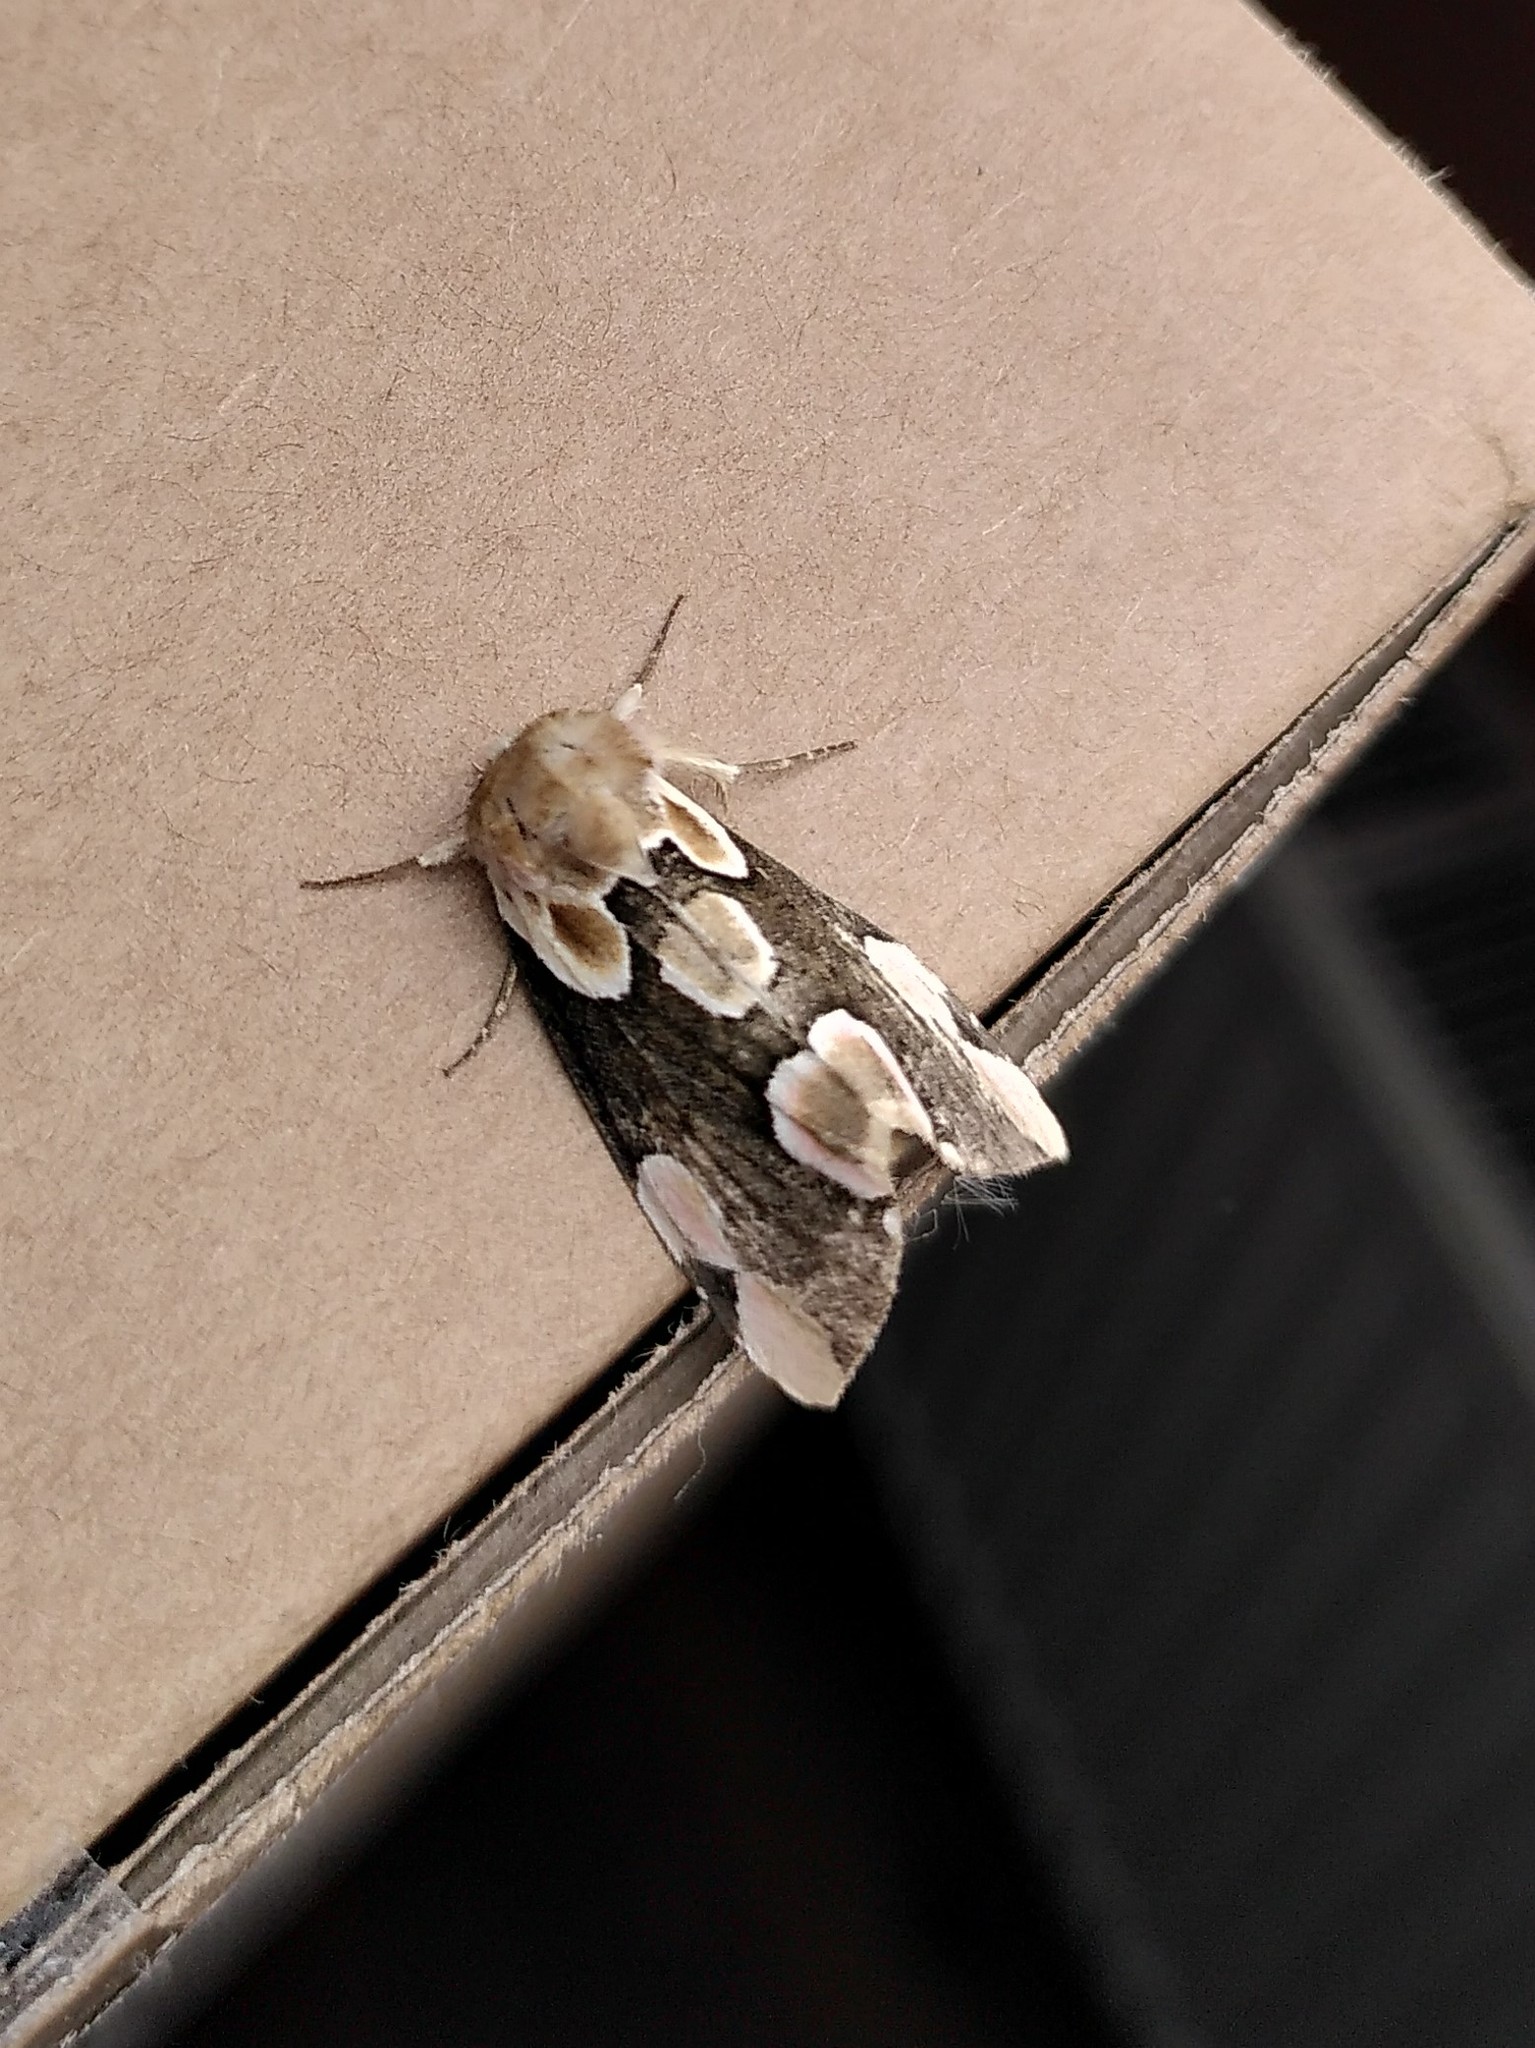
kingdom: Animalia
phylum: Arthropoda
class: Insecta
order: Lepidoptera
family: Drepanidae
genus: Thyatira
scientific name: Thyatira batis
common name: Peach blossom
